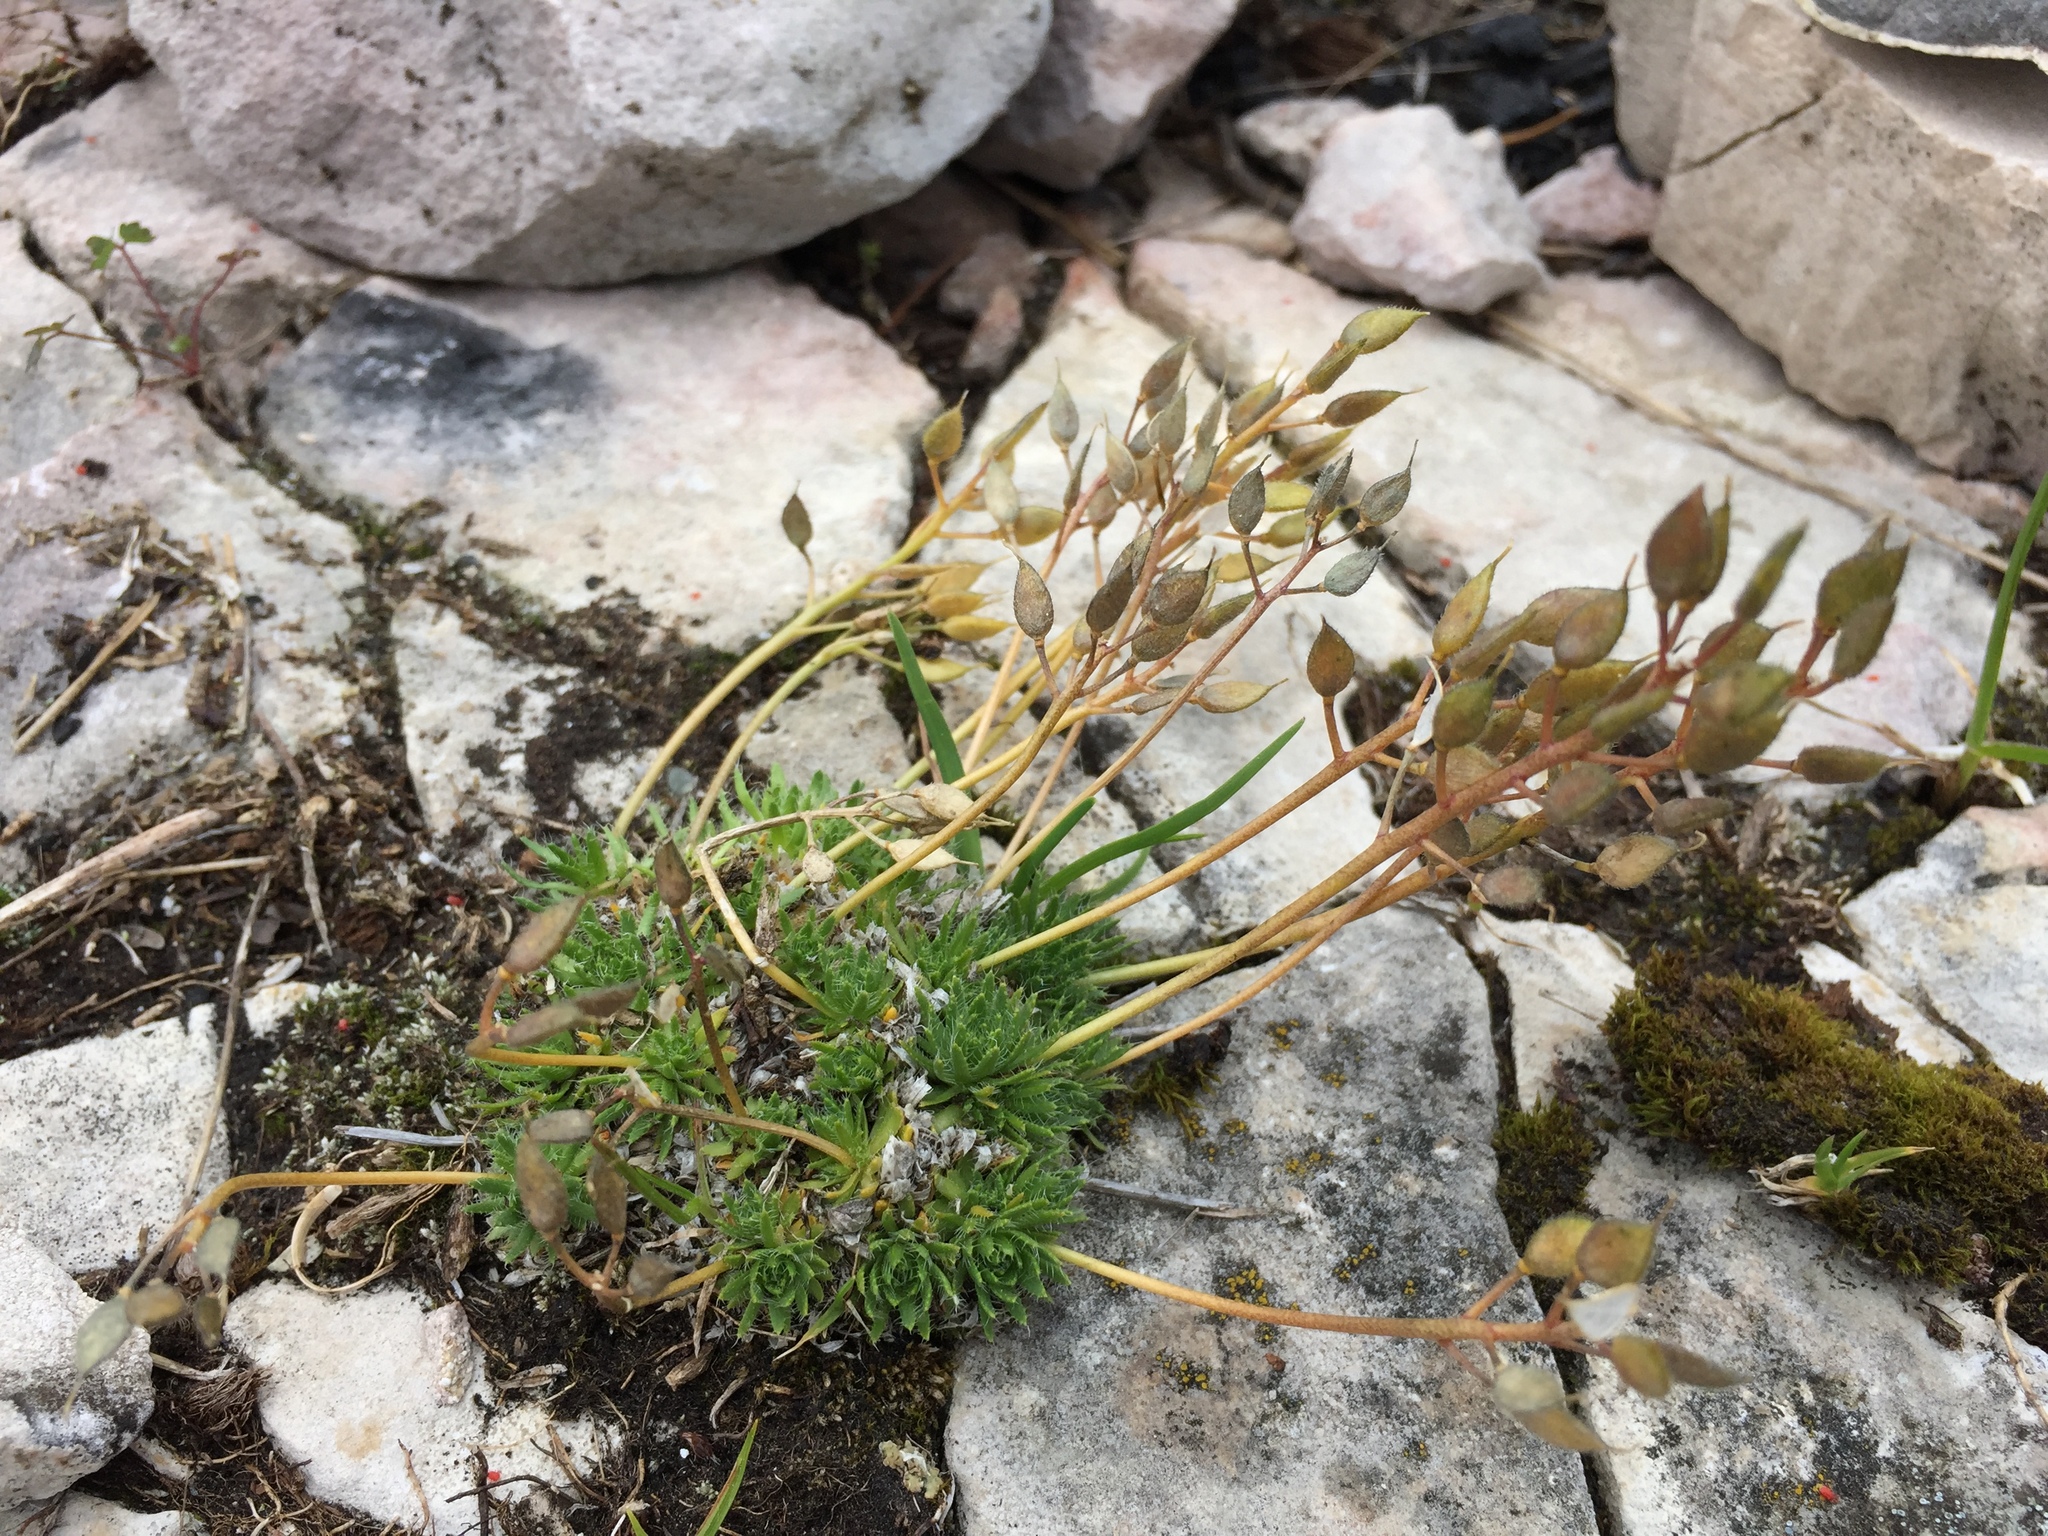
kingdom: Plantae
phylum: Tracheophyta
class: Magnoliopsida
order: Brassicales
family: Brassicaceae
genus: Draba
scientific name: Draba aizoides
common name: Yellow whitlowgrass
